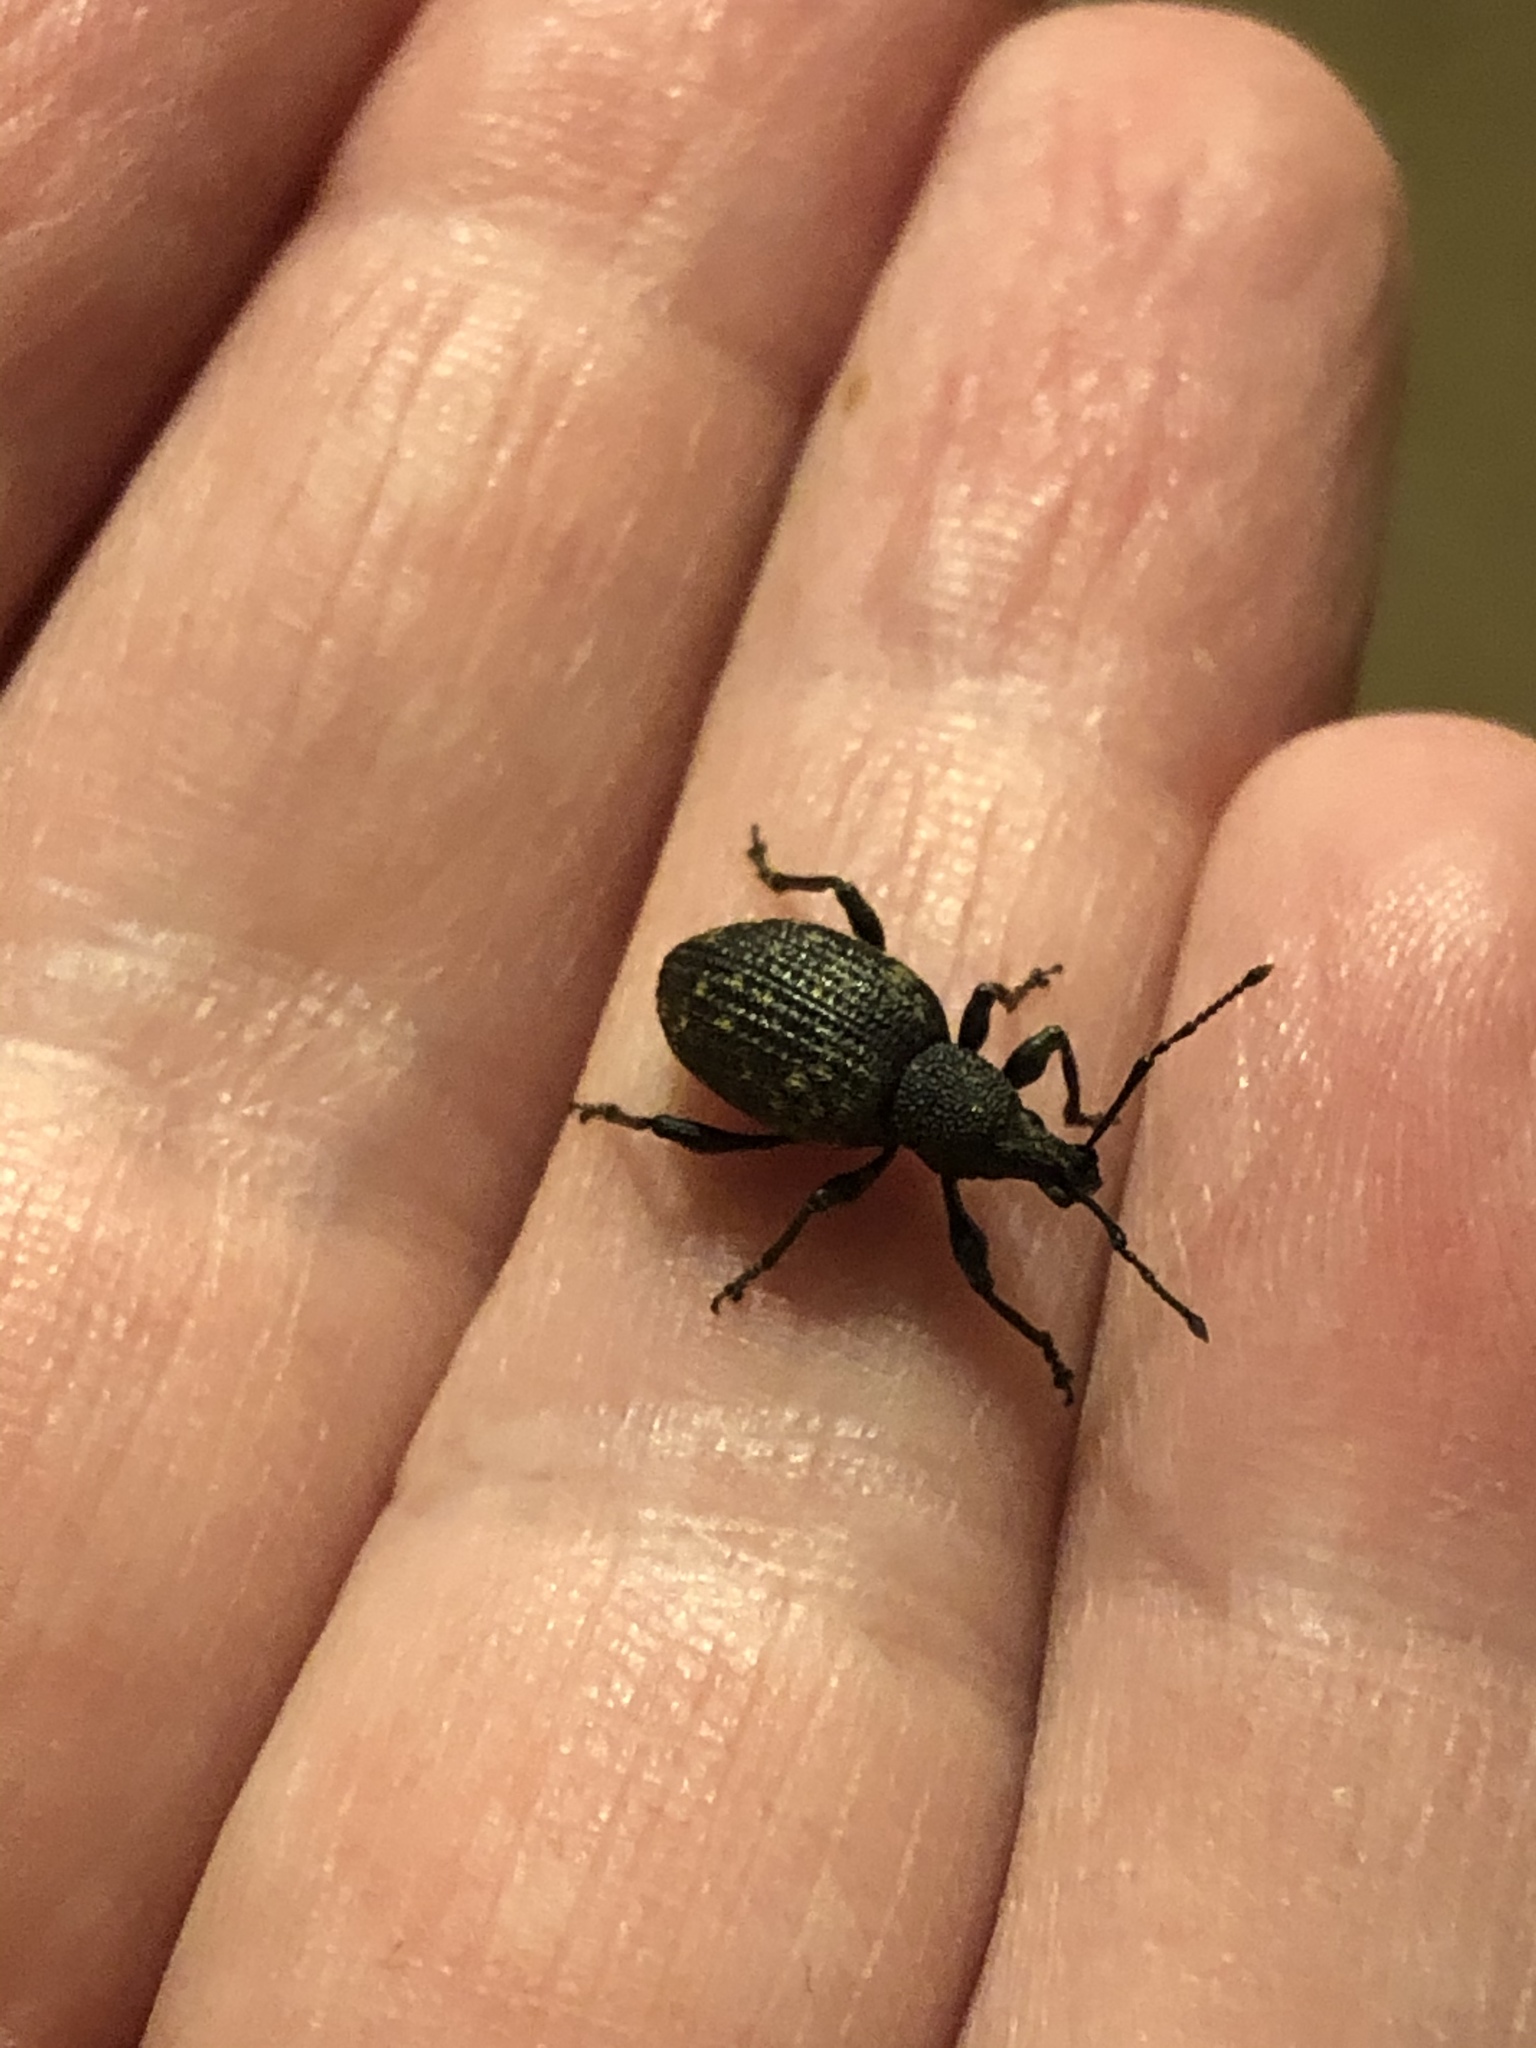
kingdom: Animalia
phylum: Arthropoda
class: Insecta
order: Coleoptera
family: Curculionidae
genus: Otiorhynchus
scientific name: Otiorhynchus sulcatus
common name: Black vine weevil
